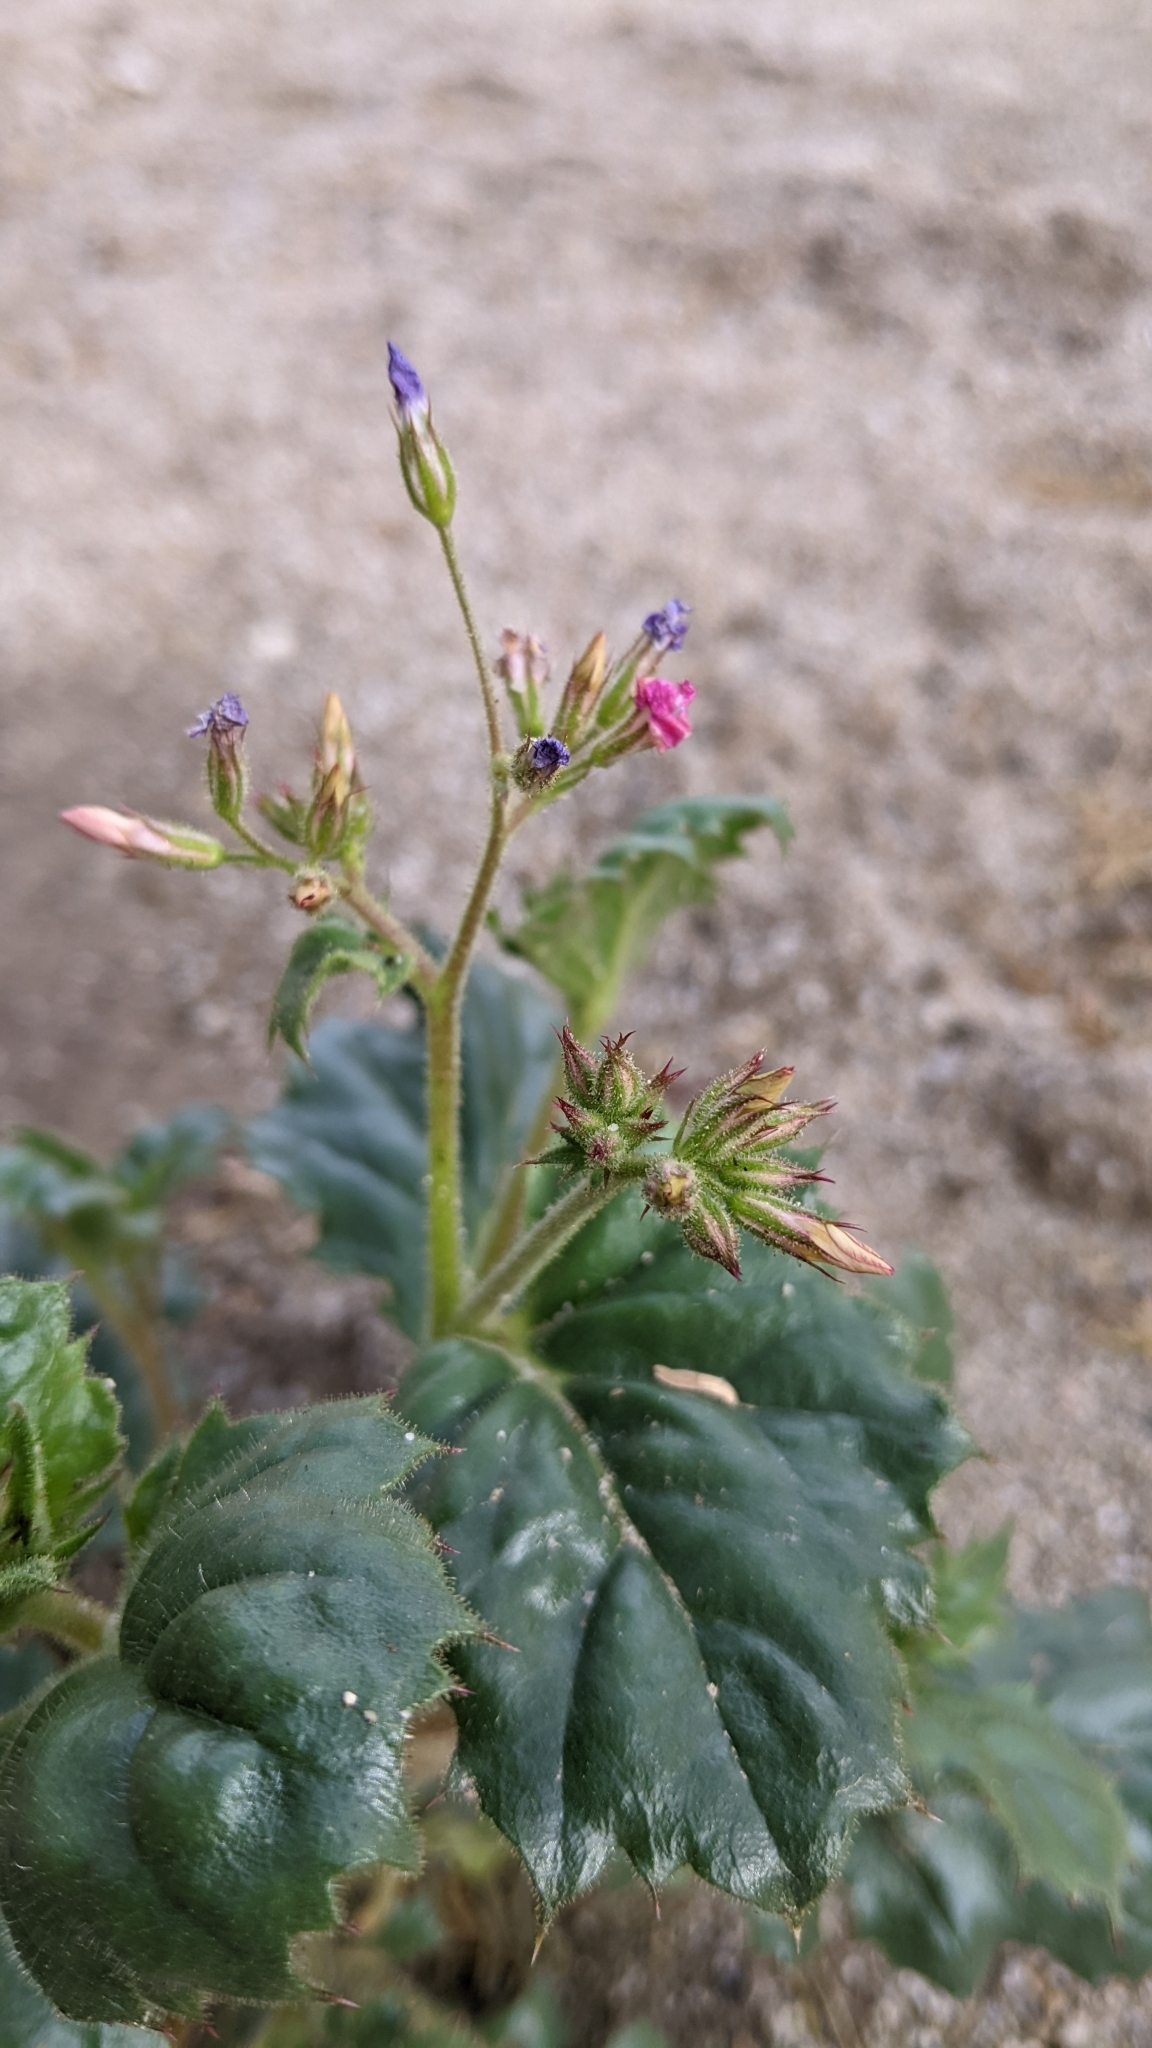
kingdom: Plantae
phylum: Tracheophyta
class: Magnoliopsida
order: Ericales
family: Polemoniaceae
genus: Aliciella
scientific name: Aliciella latifolia
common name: Broad-leaf gilia
